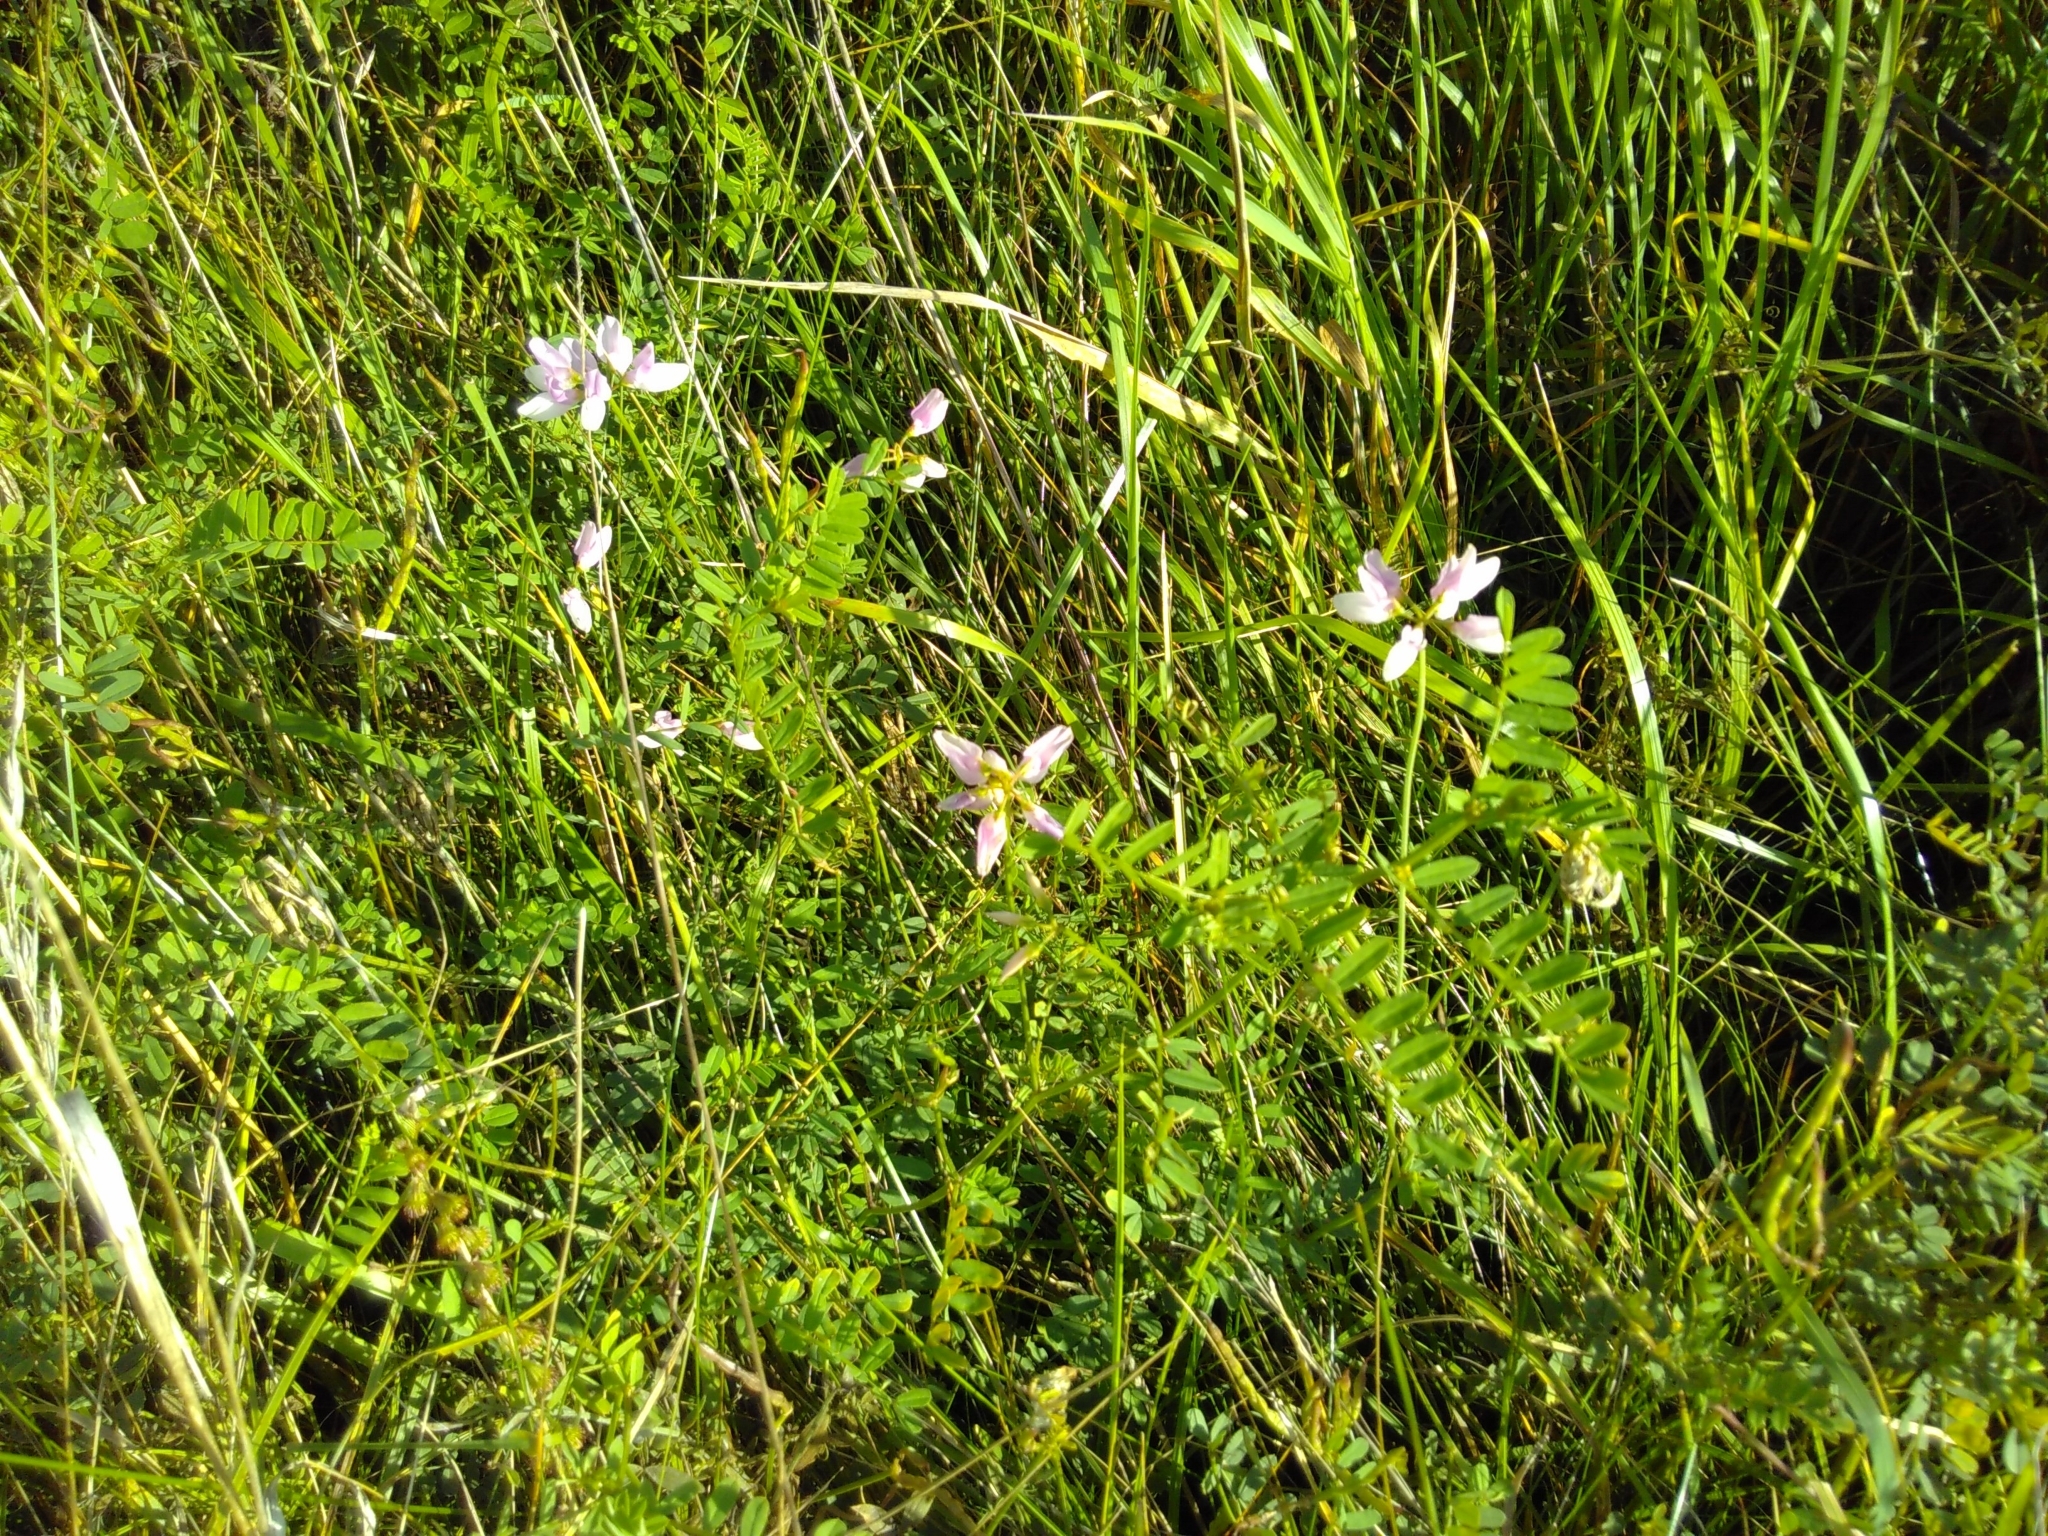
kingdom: Plantae
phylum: Tracheophyta
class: Magnoliopsida
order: Fabales
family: Fabaceae
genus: Coronilla
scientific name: Coronilla varia
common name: Crownvetch
